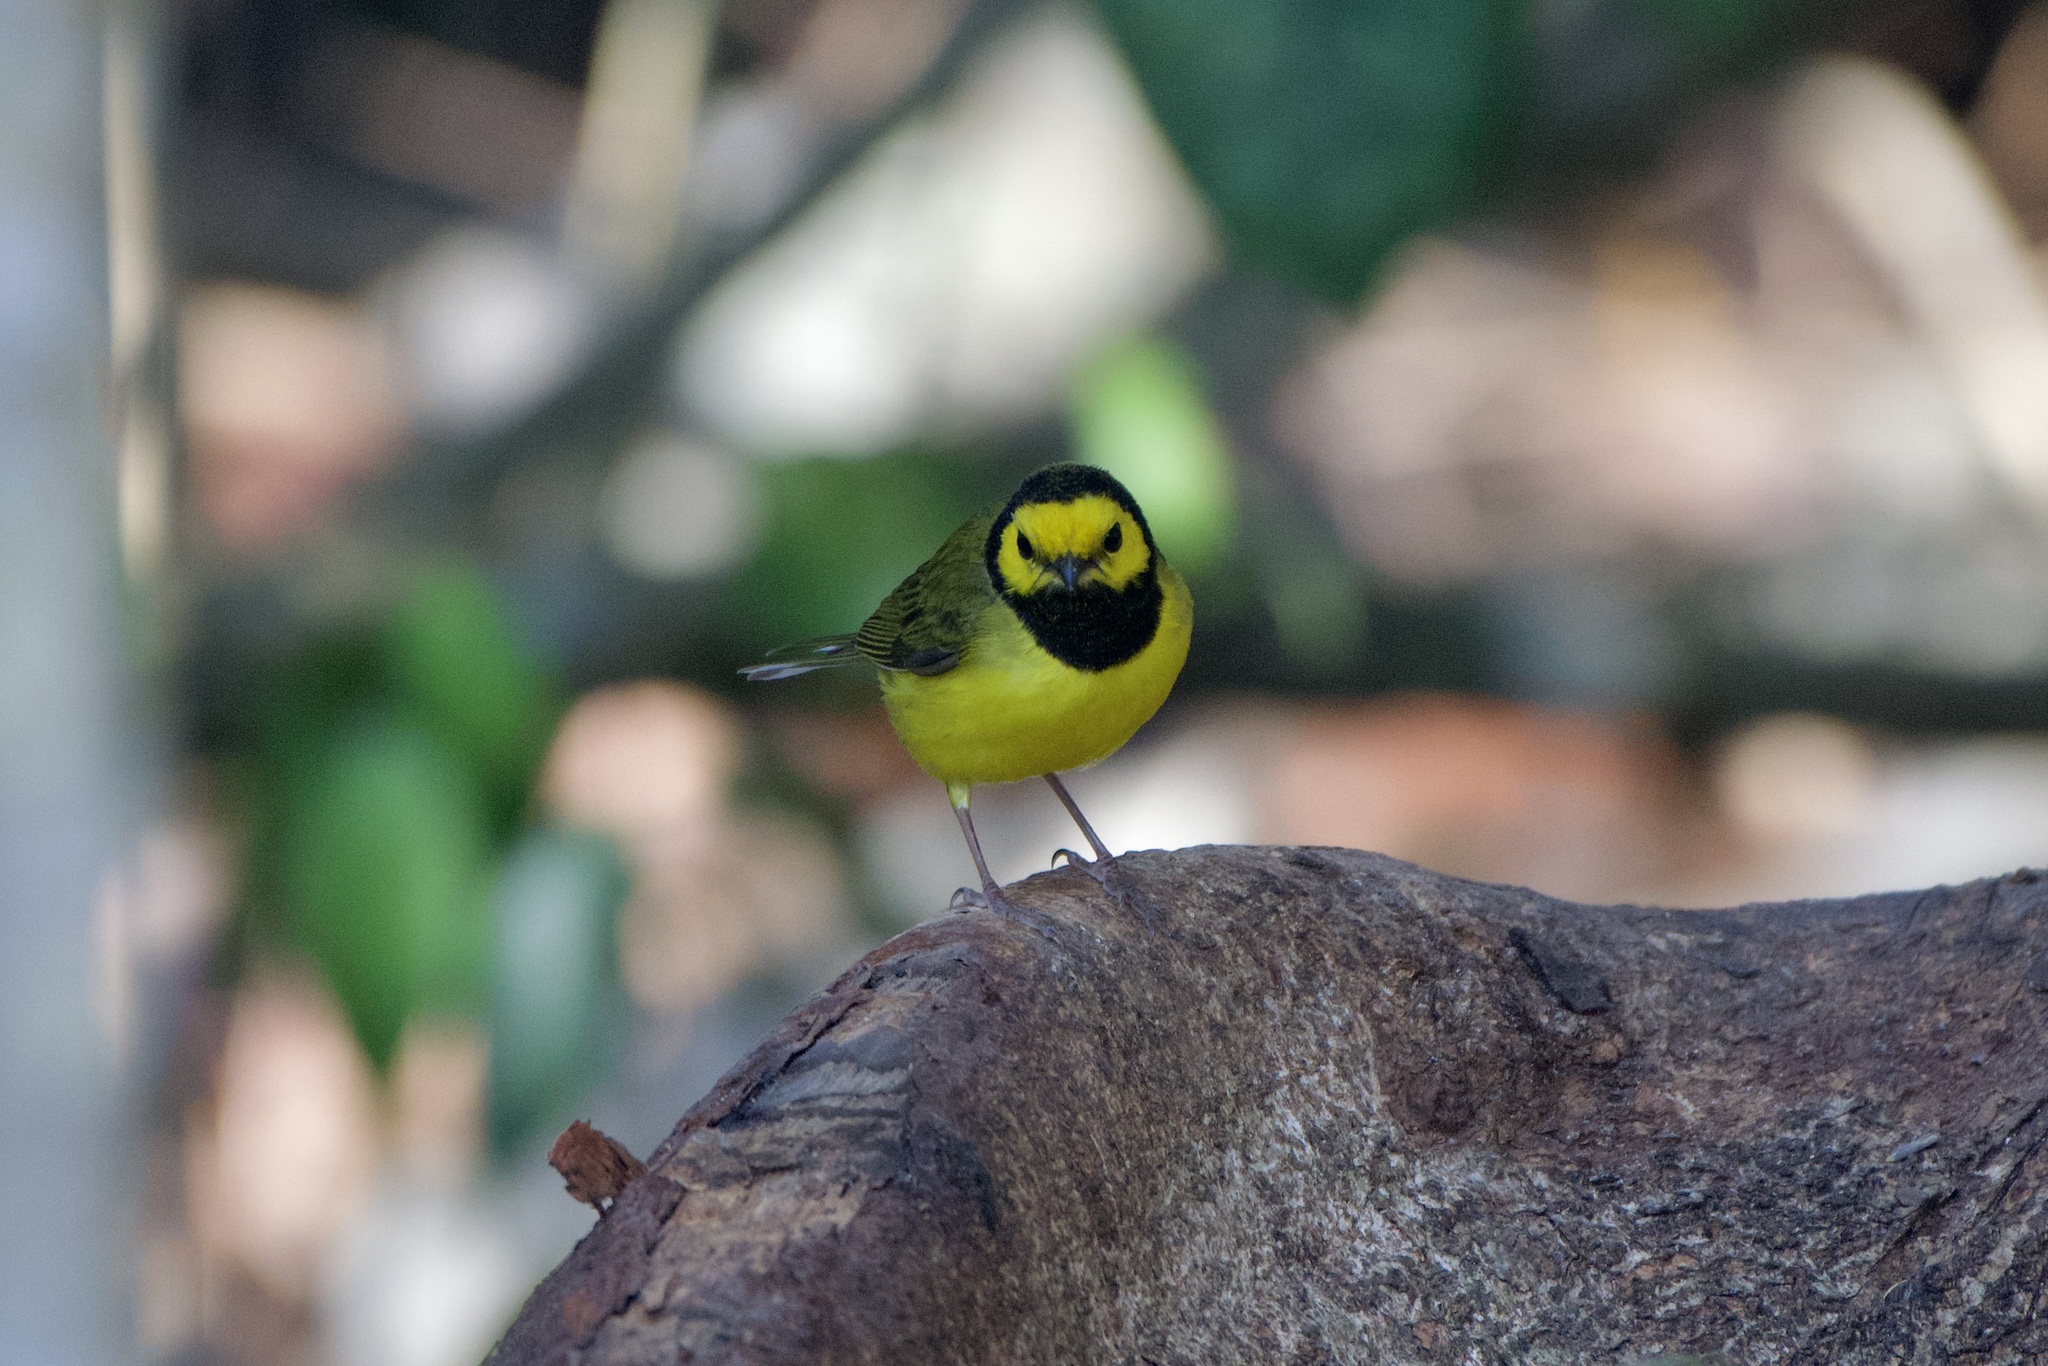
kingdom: Animalia
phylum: Chordata
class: Aves
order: Passeriformes
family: Parulidae
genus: Setophaga
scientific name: Setophaga citrina
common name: Hooded warbler
